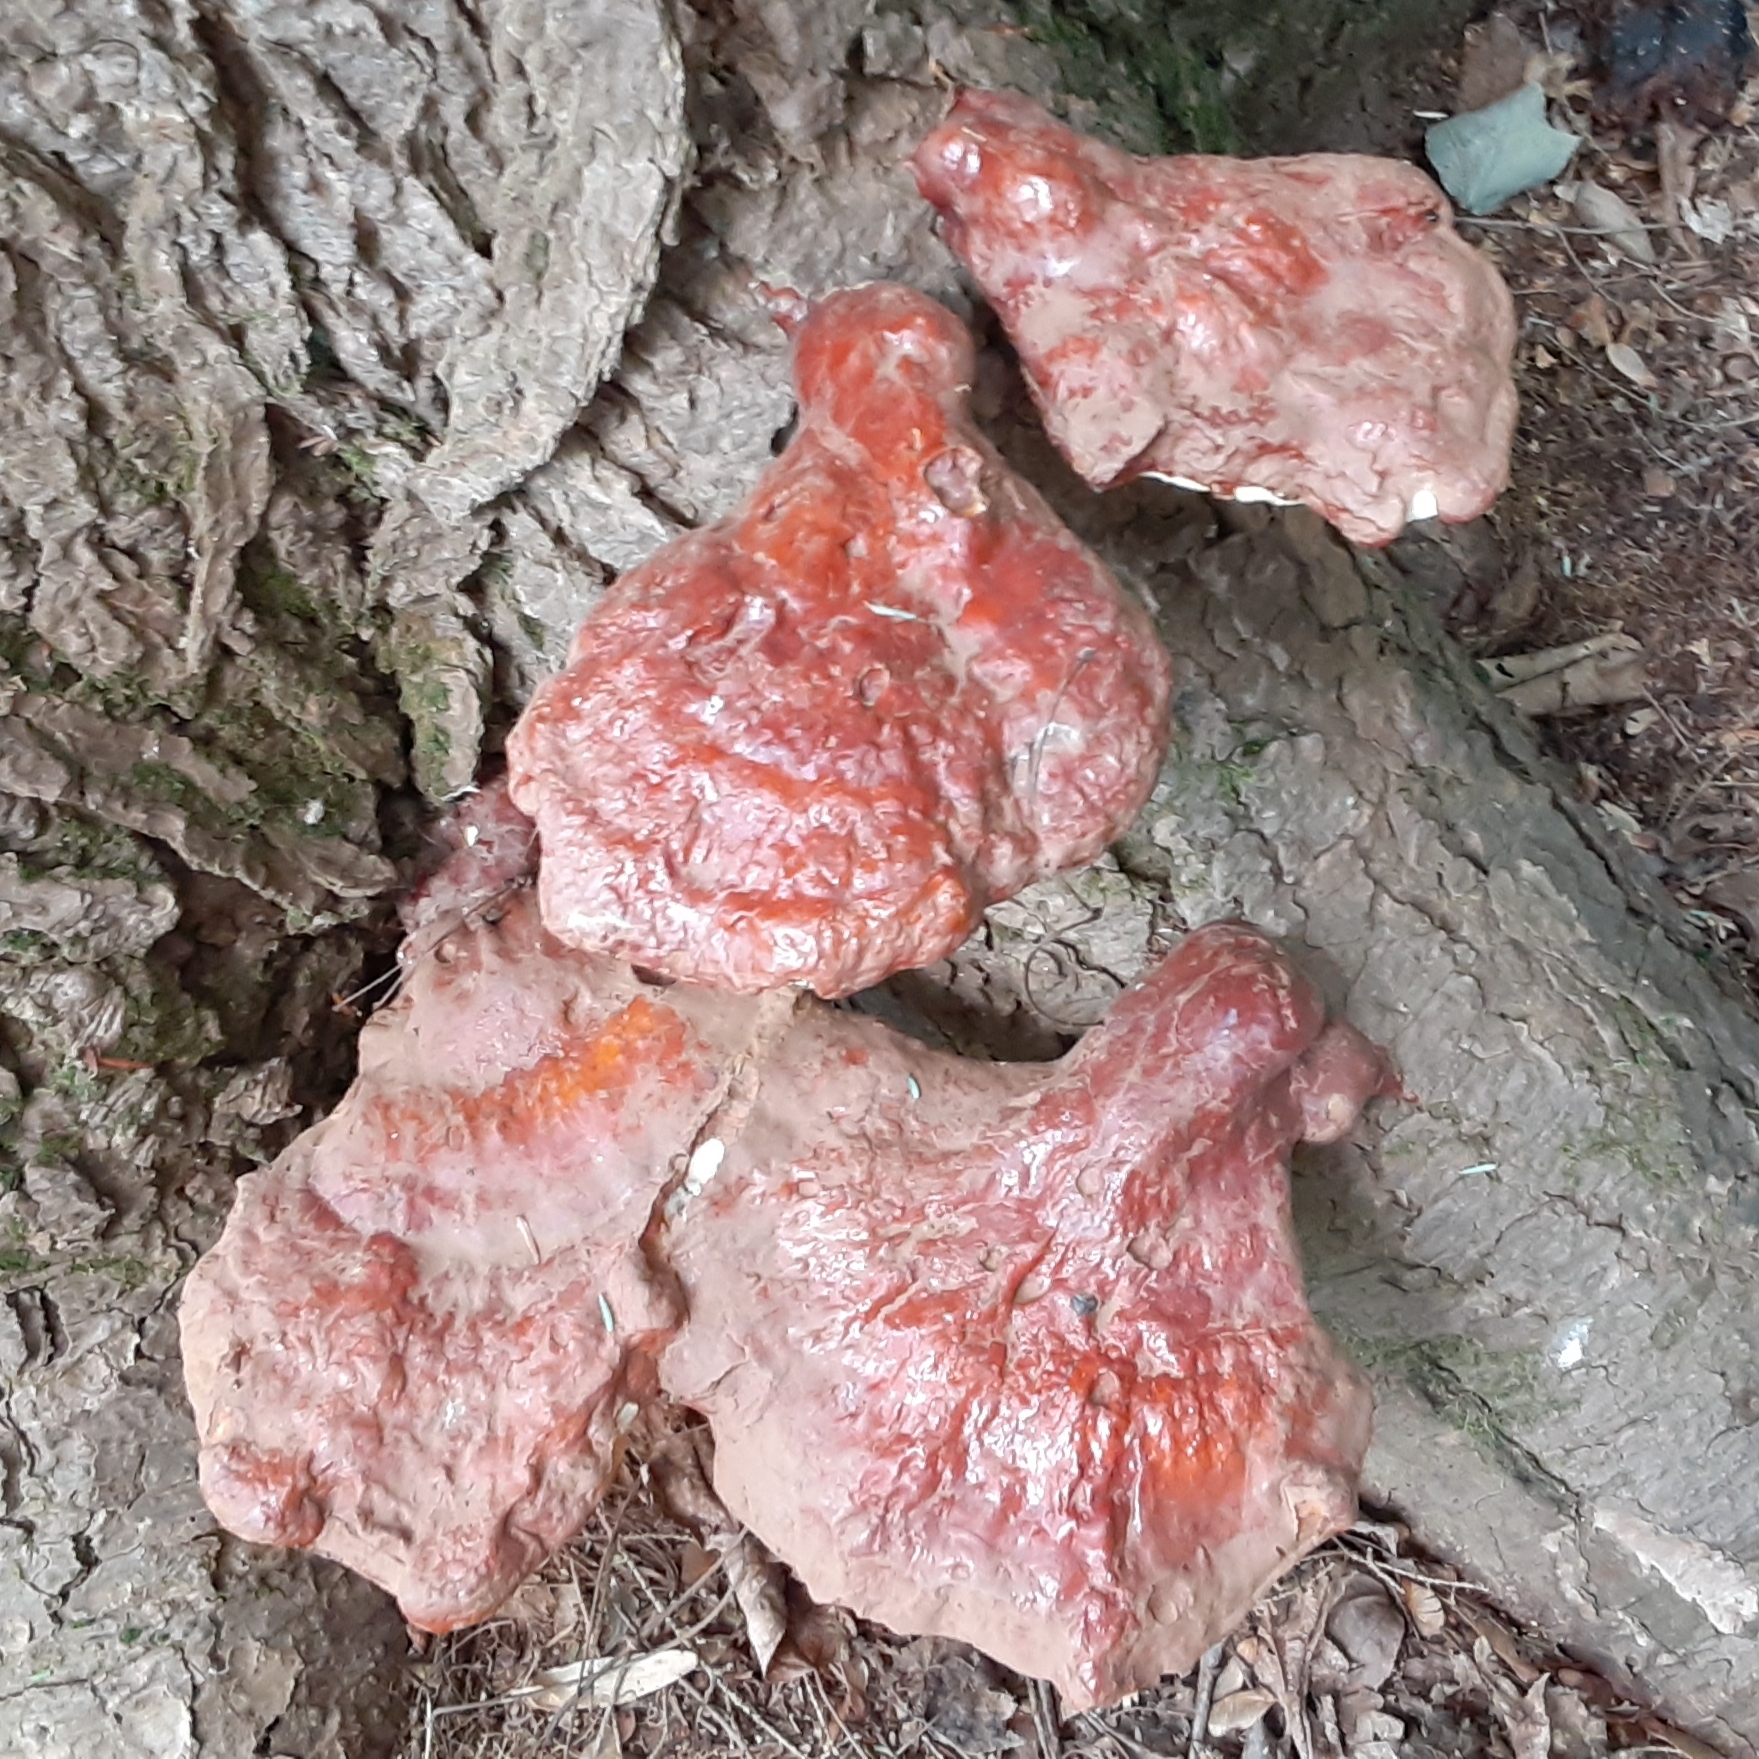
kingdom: Fungi
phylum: Basidiomycota
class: Agaricomycetes
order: Polyporales
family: Polyporaceae
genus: Ganoderma
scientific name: Ganoderma tsugae
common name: Hemlock varnish shelf
